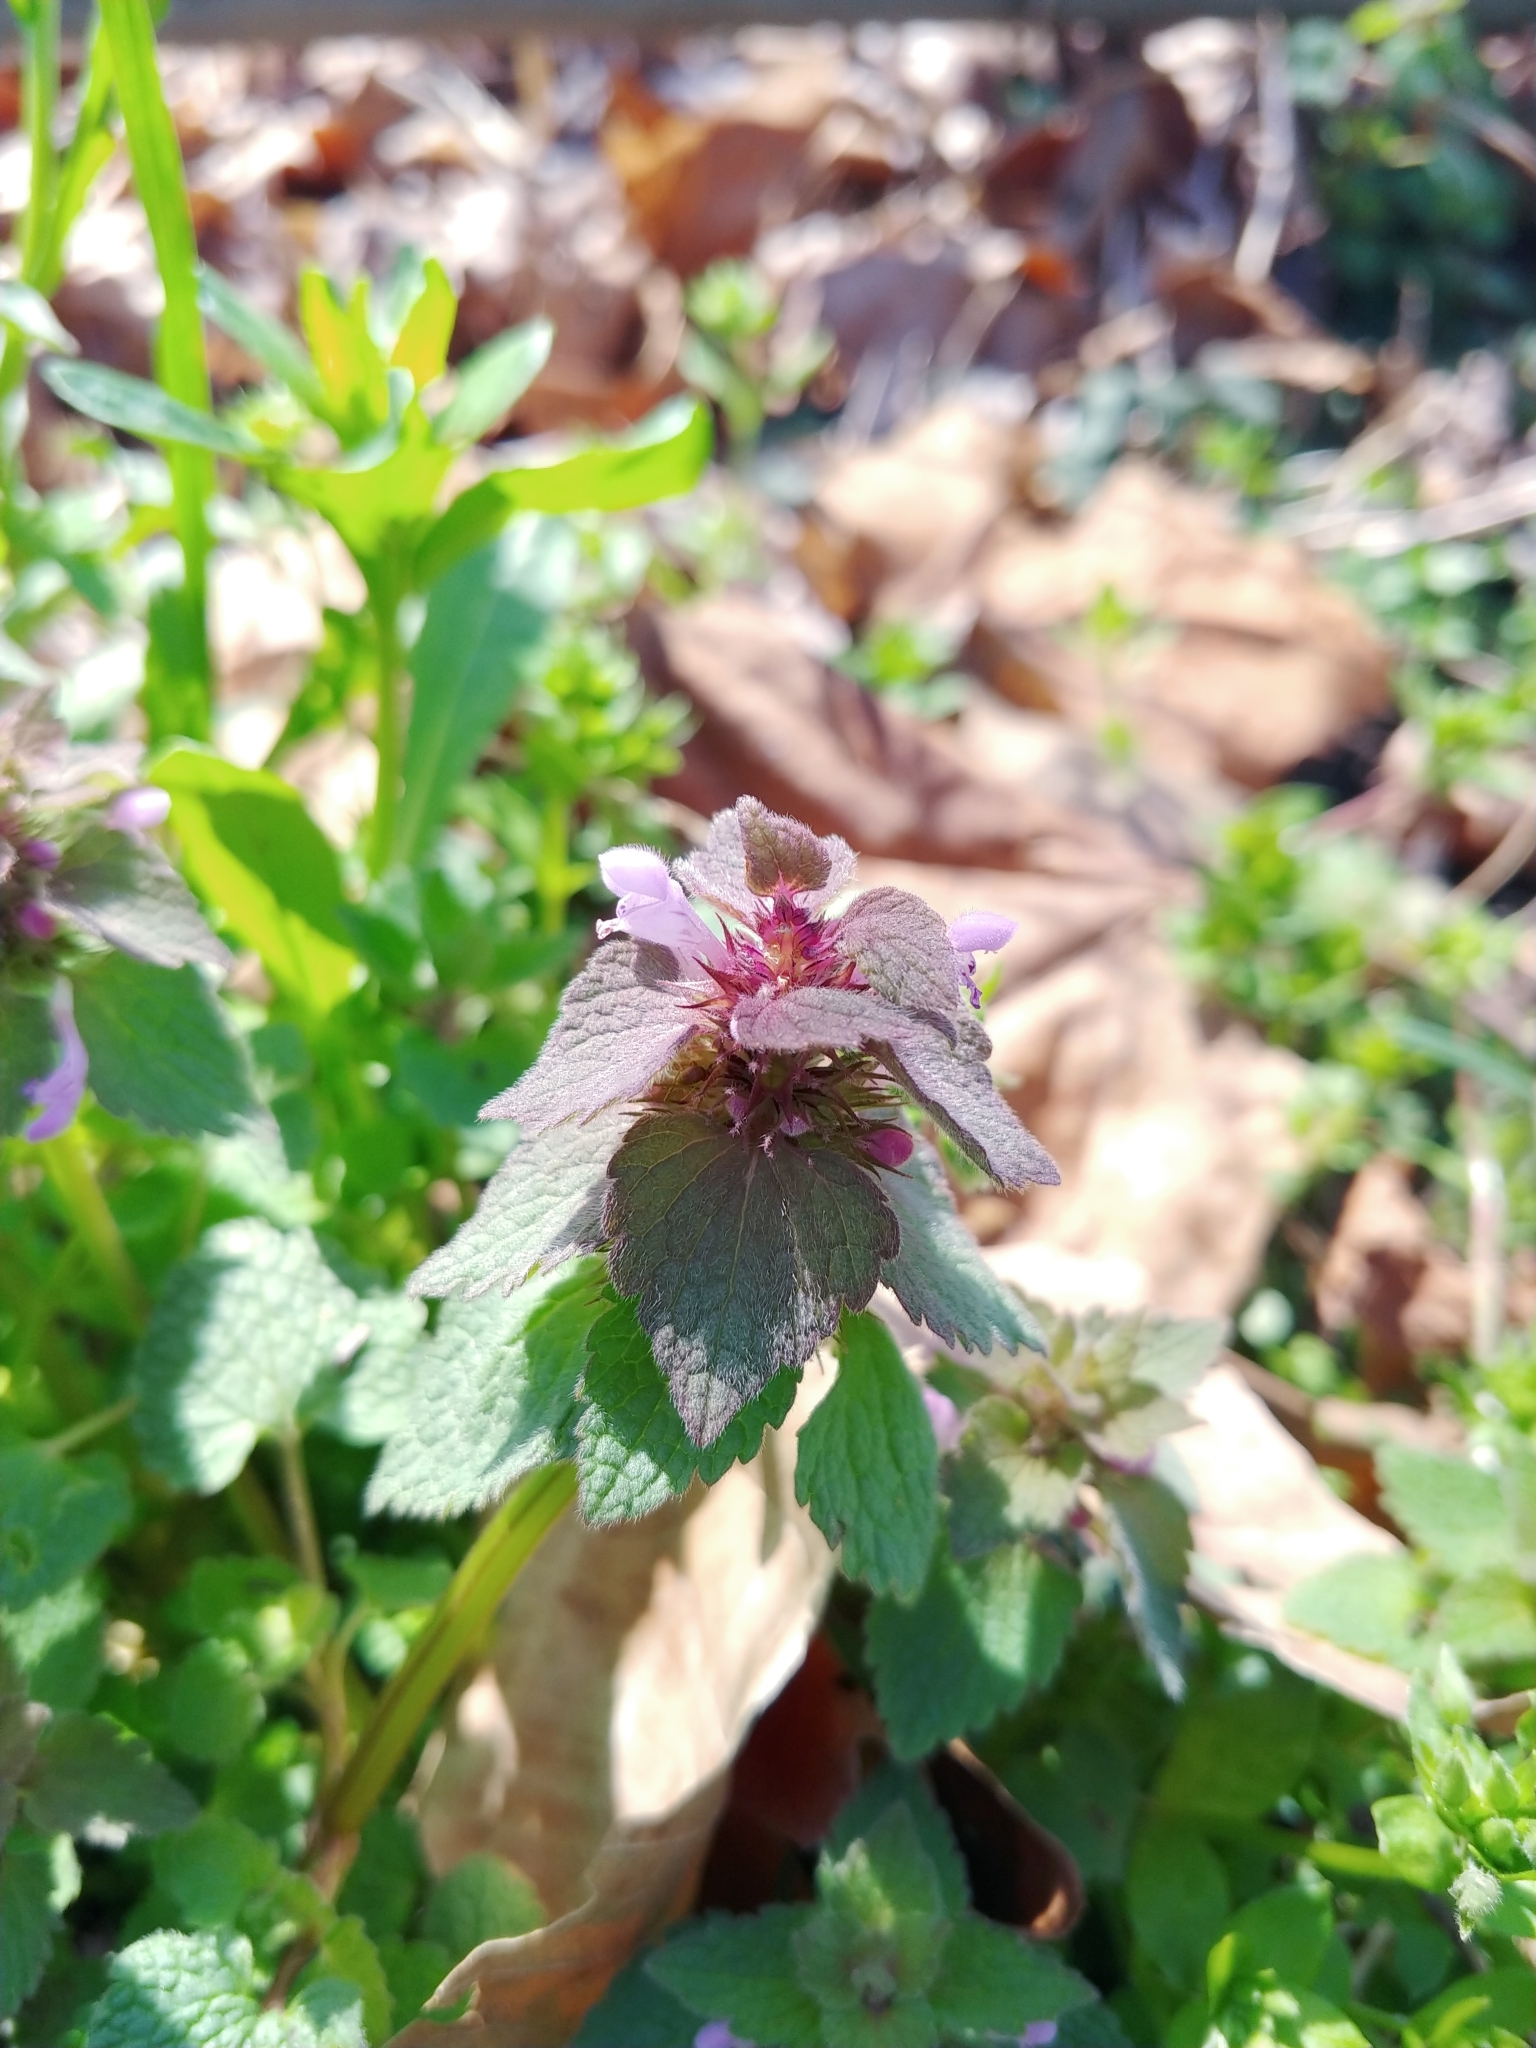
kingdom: Plantae
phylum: Tracheophyta
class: Magnoliopsida
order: Lamiales
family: Lamiaceae
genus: Lamium
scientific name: Lamium purpureum
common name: Red dead-nettle
